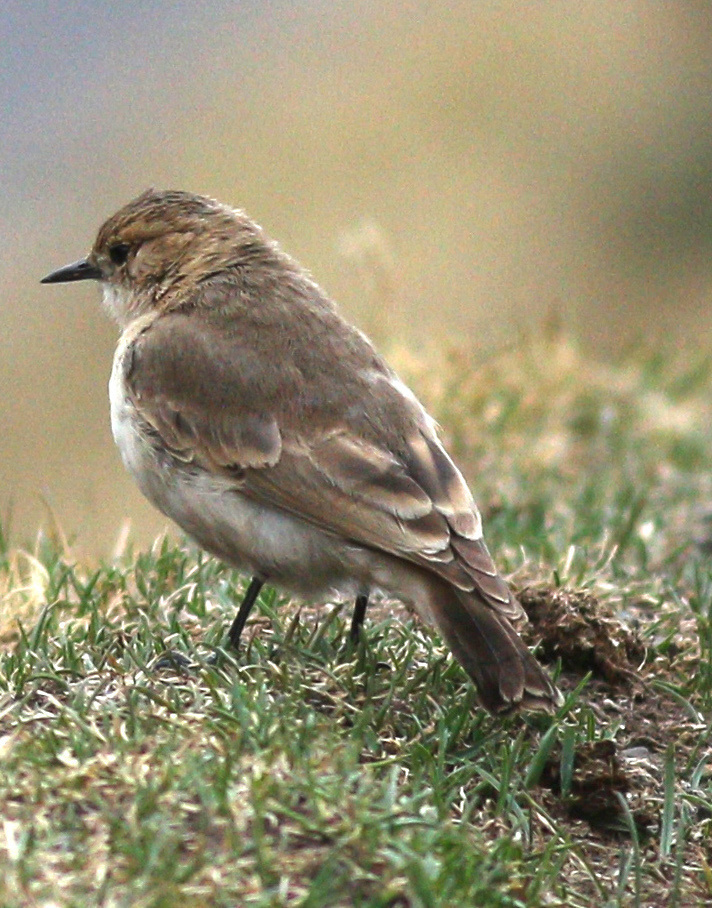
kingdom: Animalia
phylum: Chordata
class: Aves
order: Passeriformes
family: Furnariidae
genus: Geositta
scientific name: Geositta saxicolina
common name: Dark-winged miner
